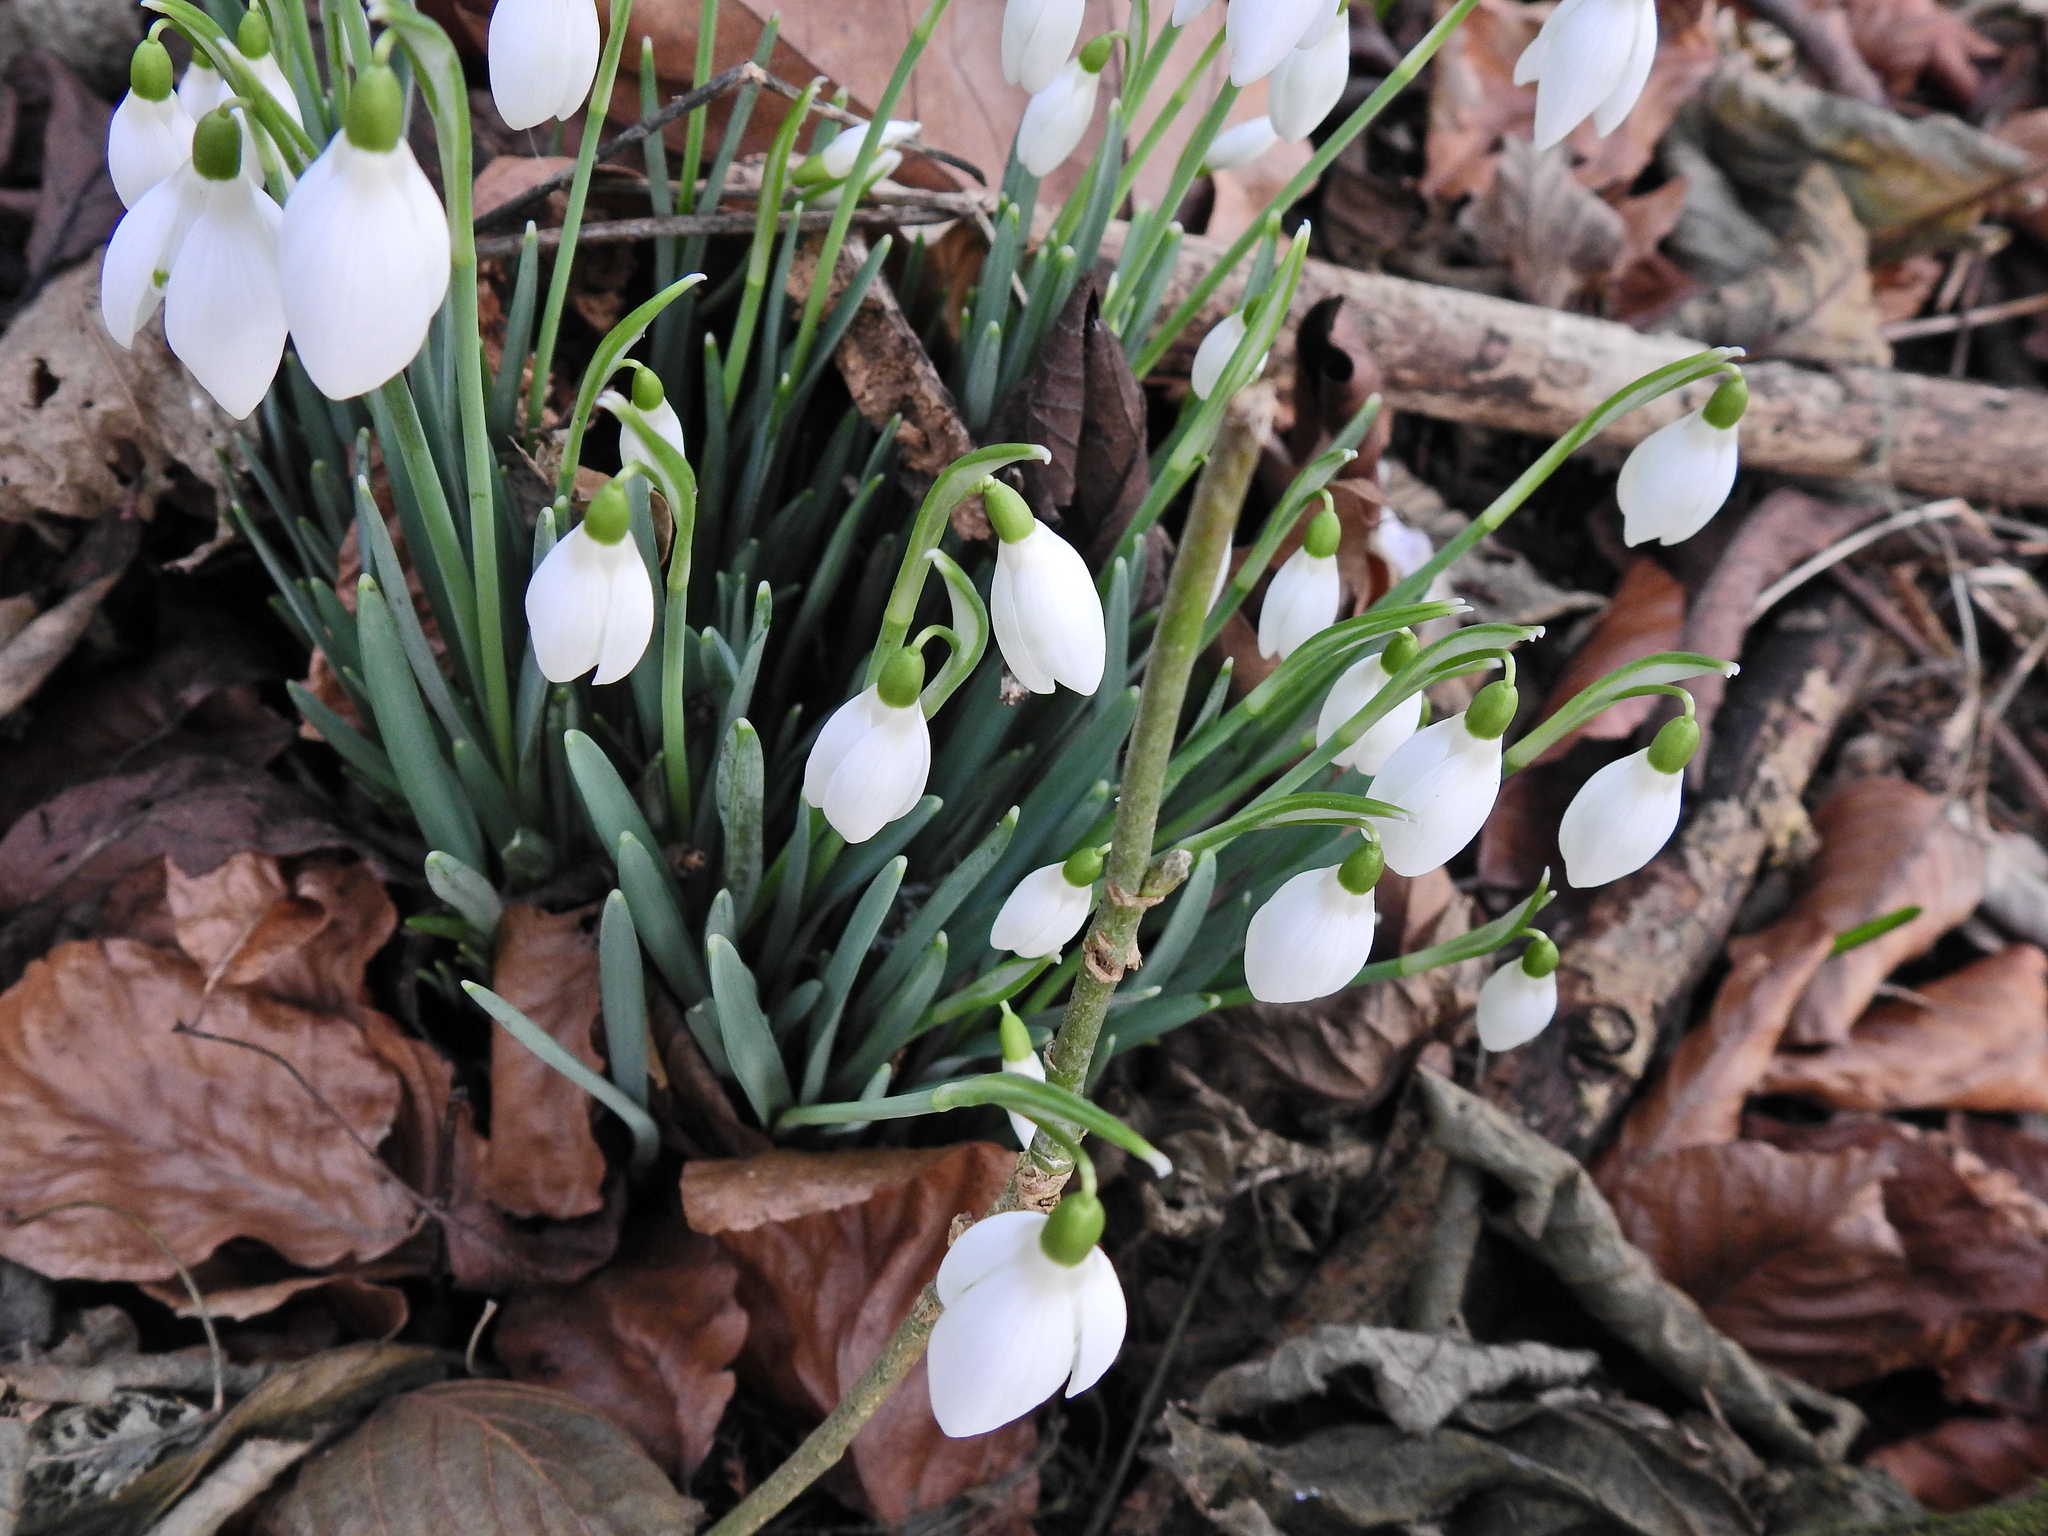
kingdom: Plantae
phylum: Tracheophyta
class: Liliopsida
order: Asparagales
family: Amaryllidaceae
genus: Galanthus
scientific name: Galanthus nivalis
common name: Snowdrop
